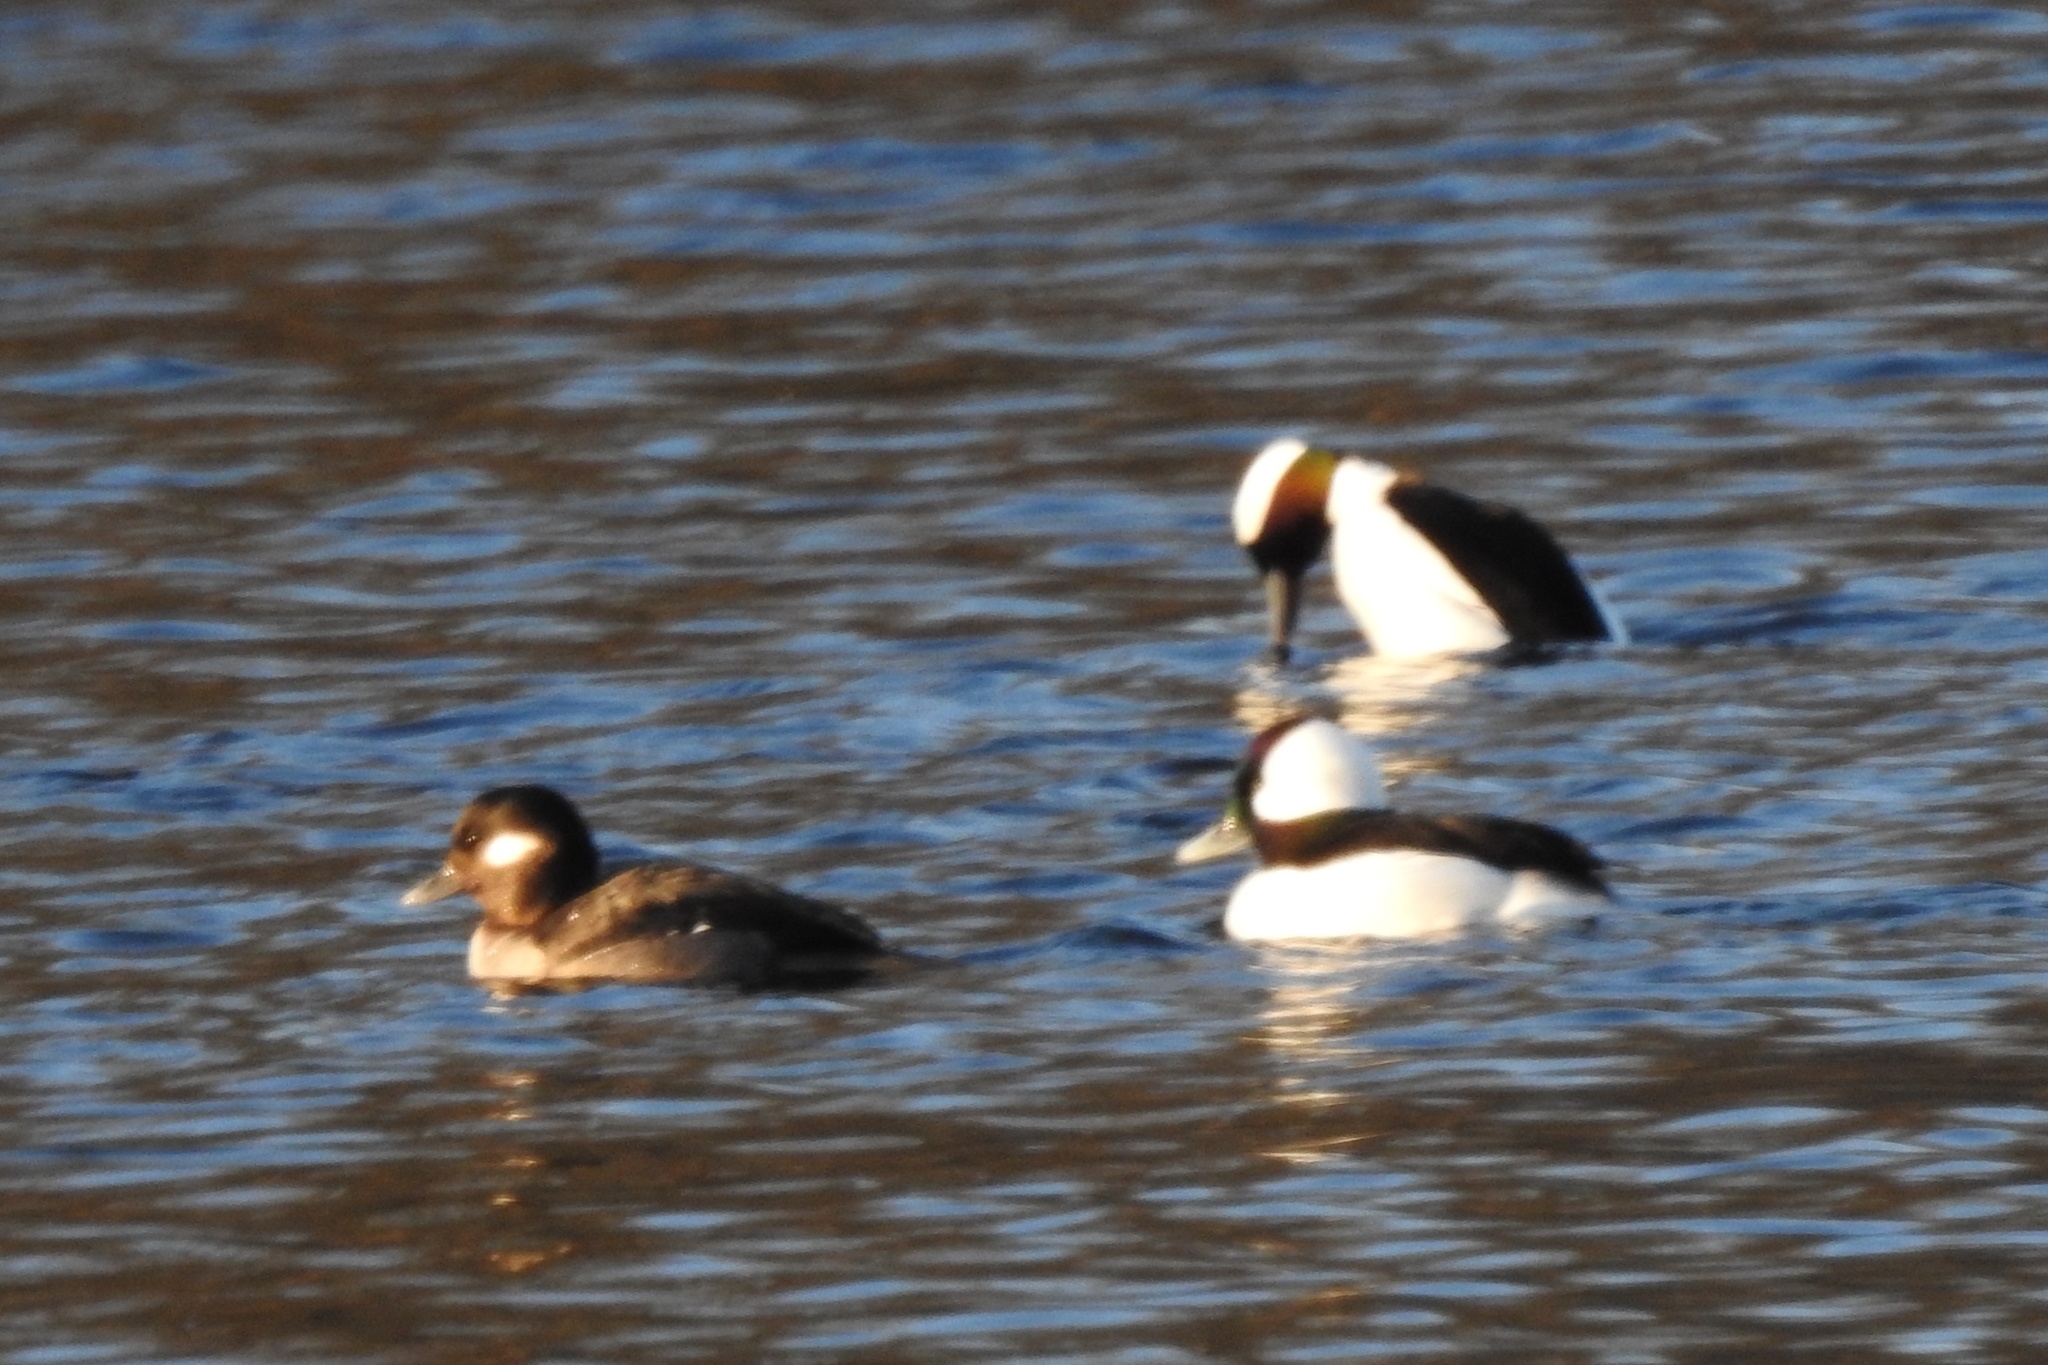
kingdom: Animalia
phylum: Chordata
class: Aves
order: Anseriformes
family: Anatidae
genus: Bucephala
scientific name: Bucephala albeola
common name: Bufflehead
